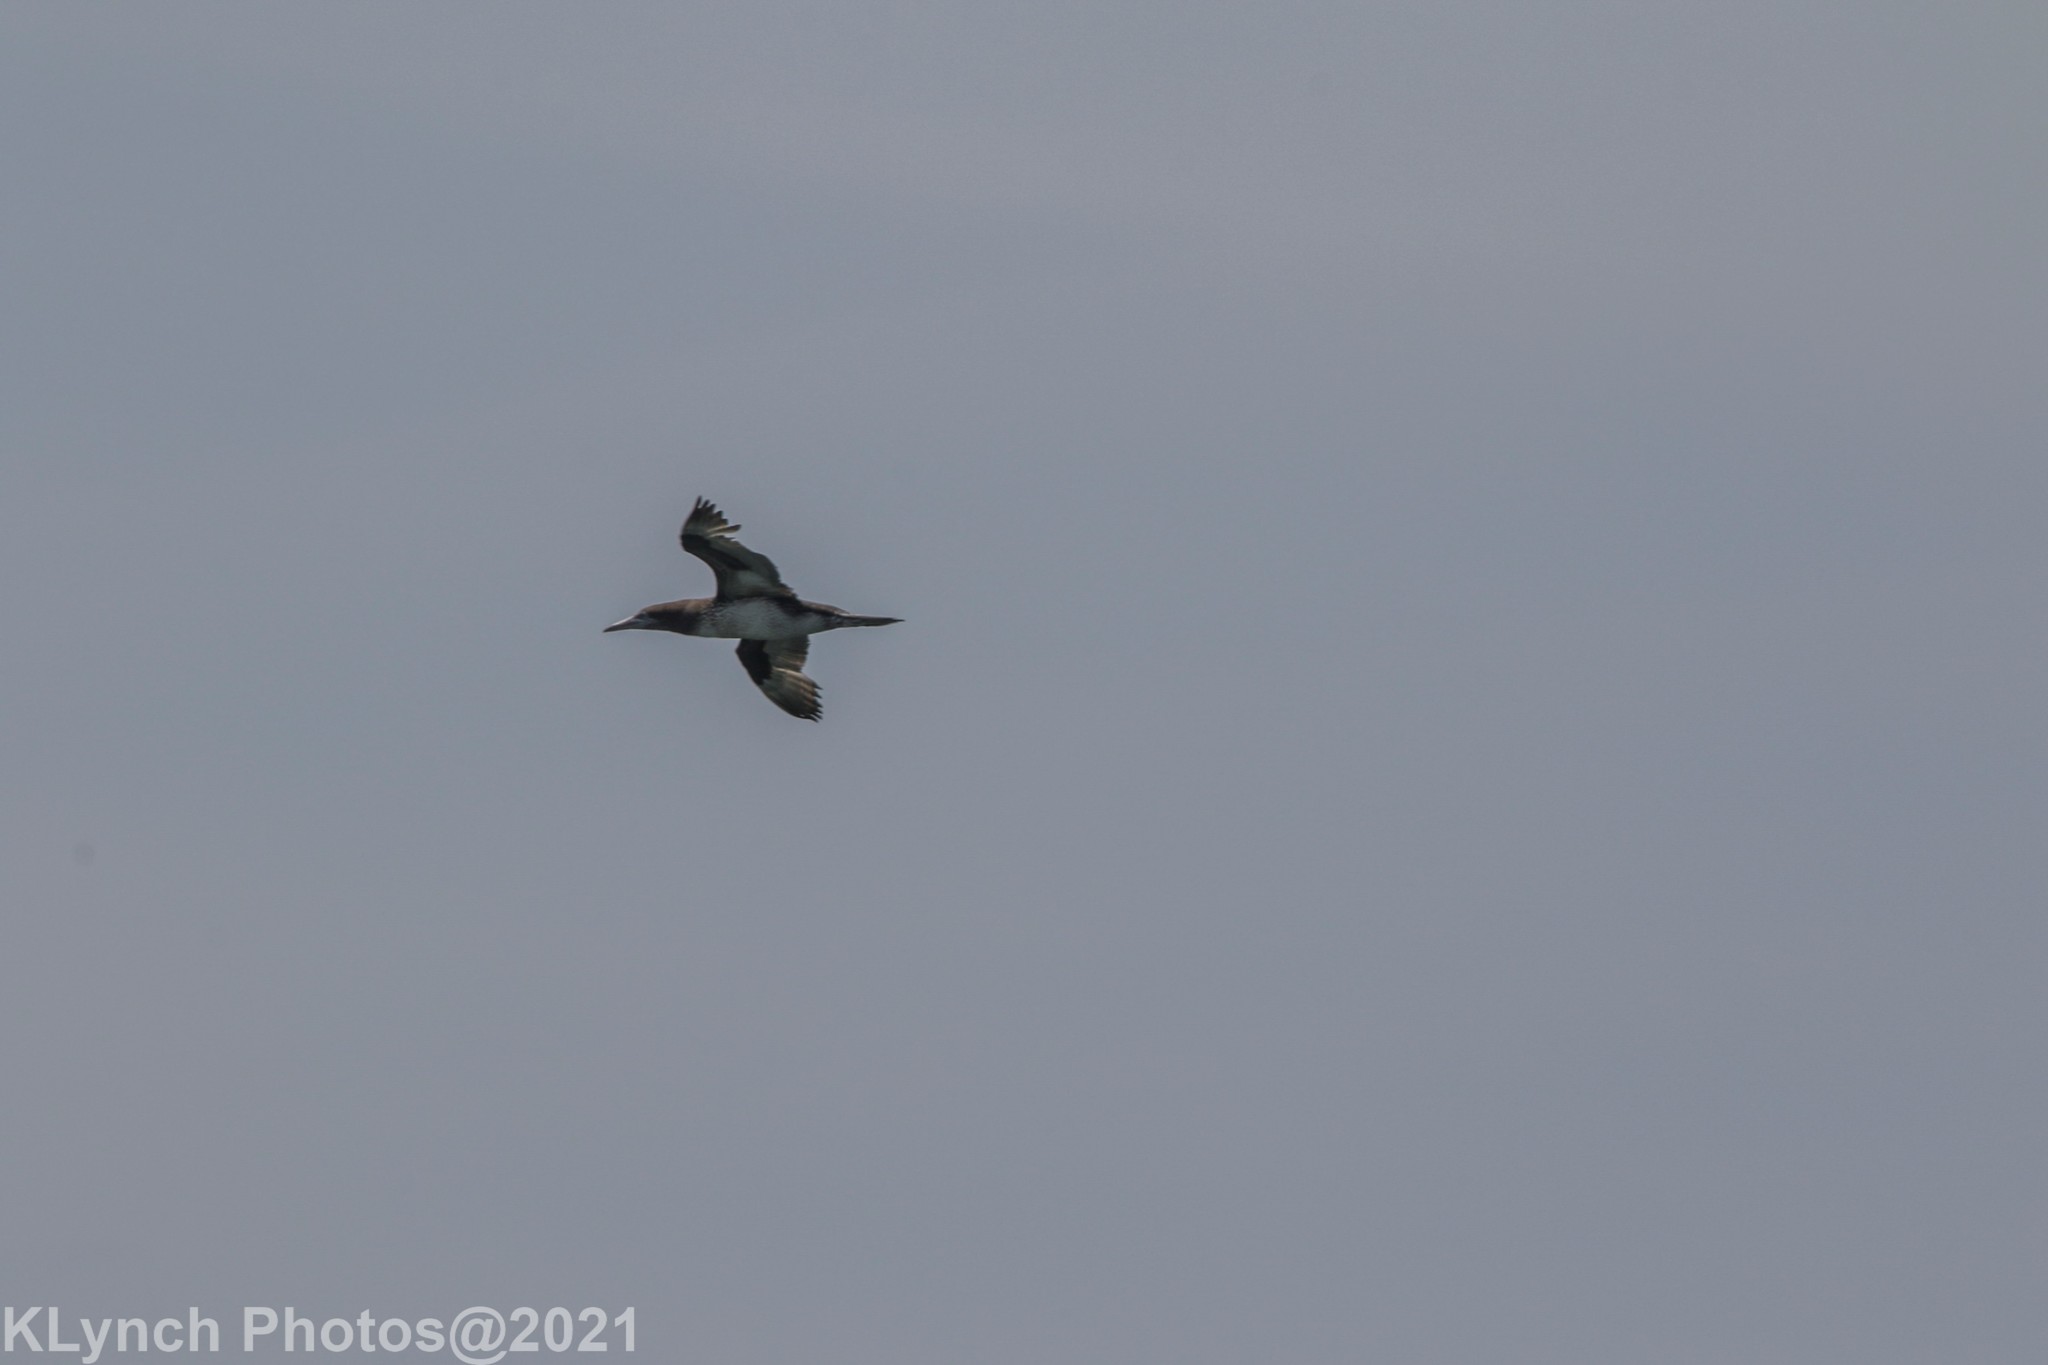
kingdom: Animalia
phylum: Chordata
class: Aves
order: Suliformes
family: Sulidae
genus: Morus
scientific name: Morus bassanus
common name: Northern gannet
